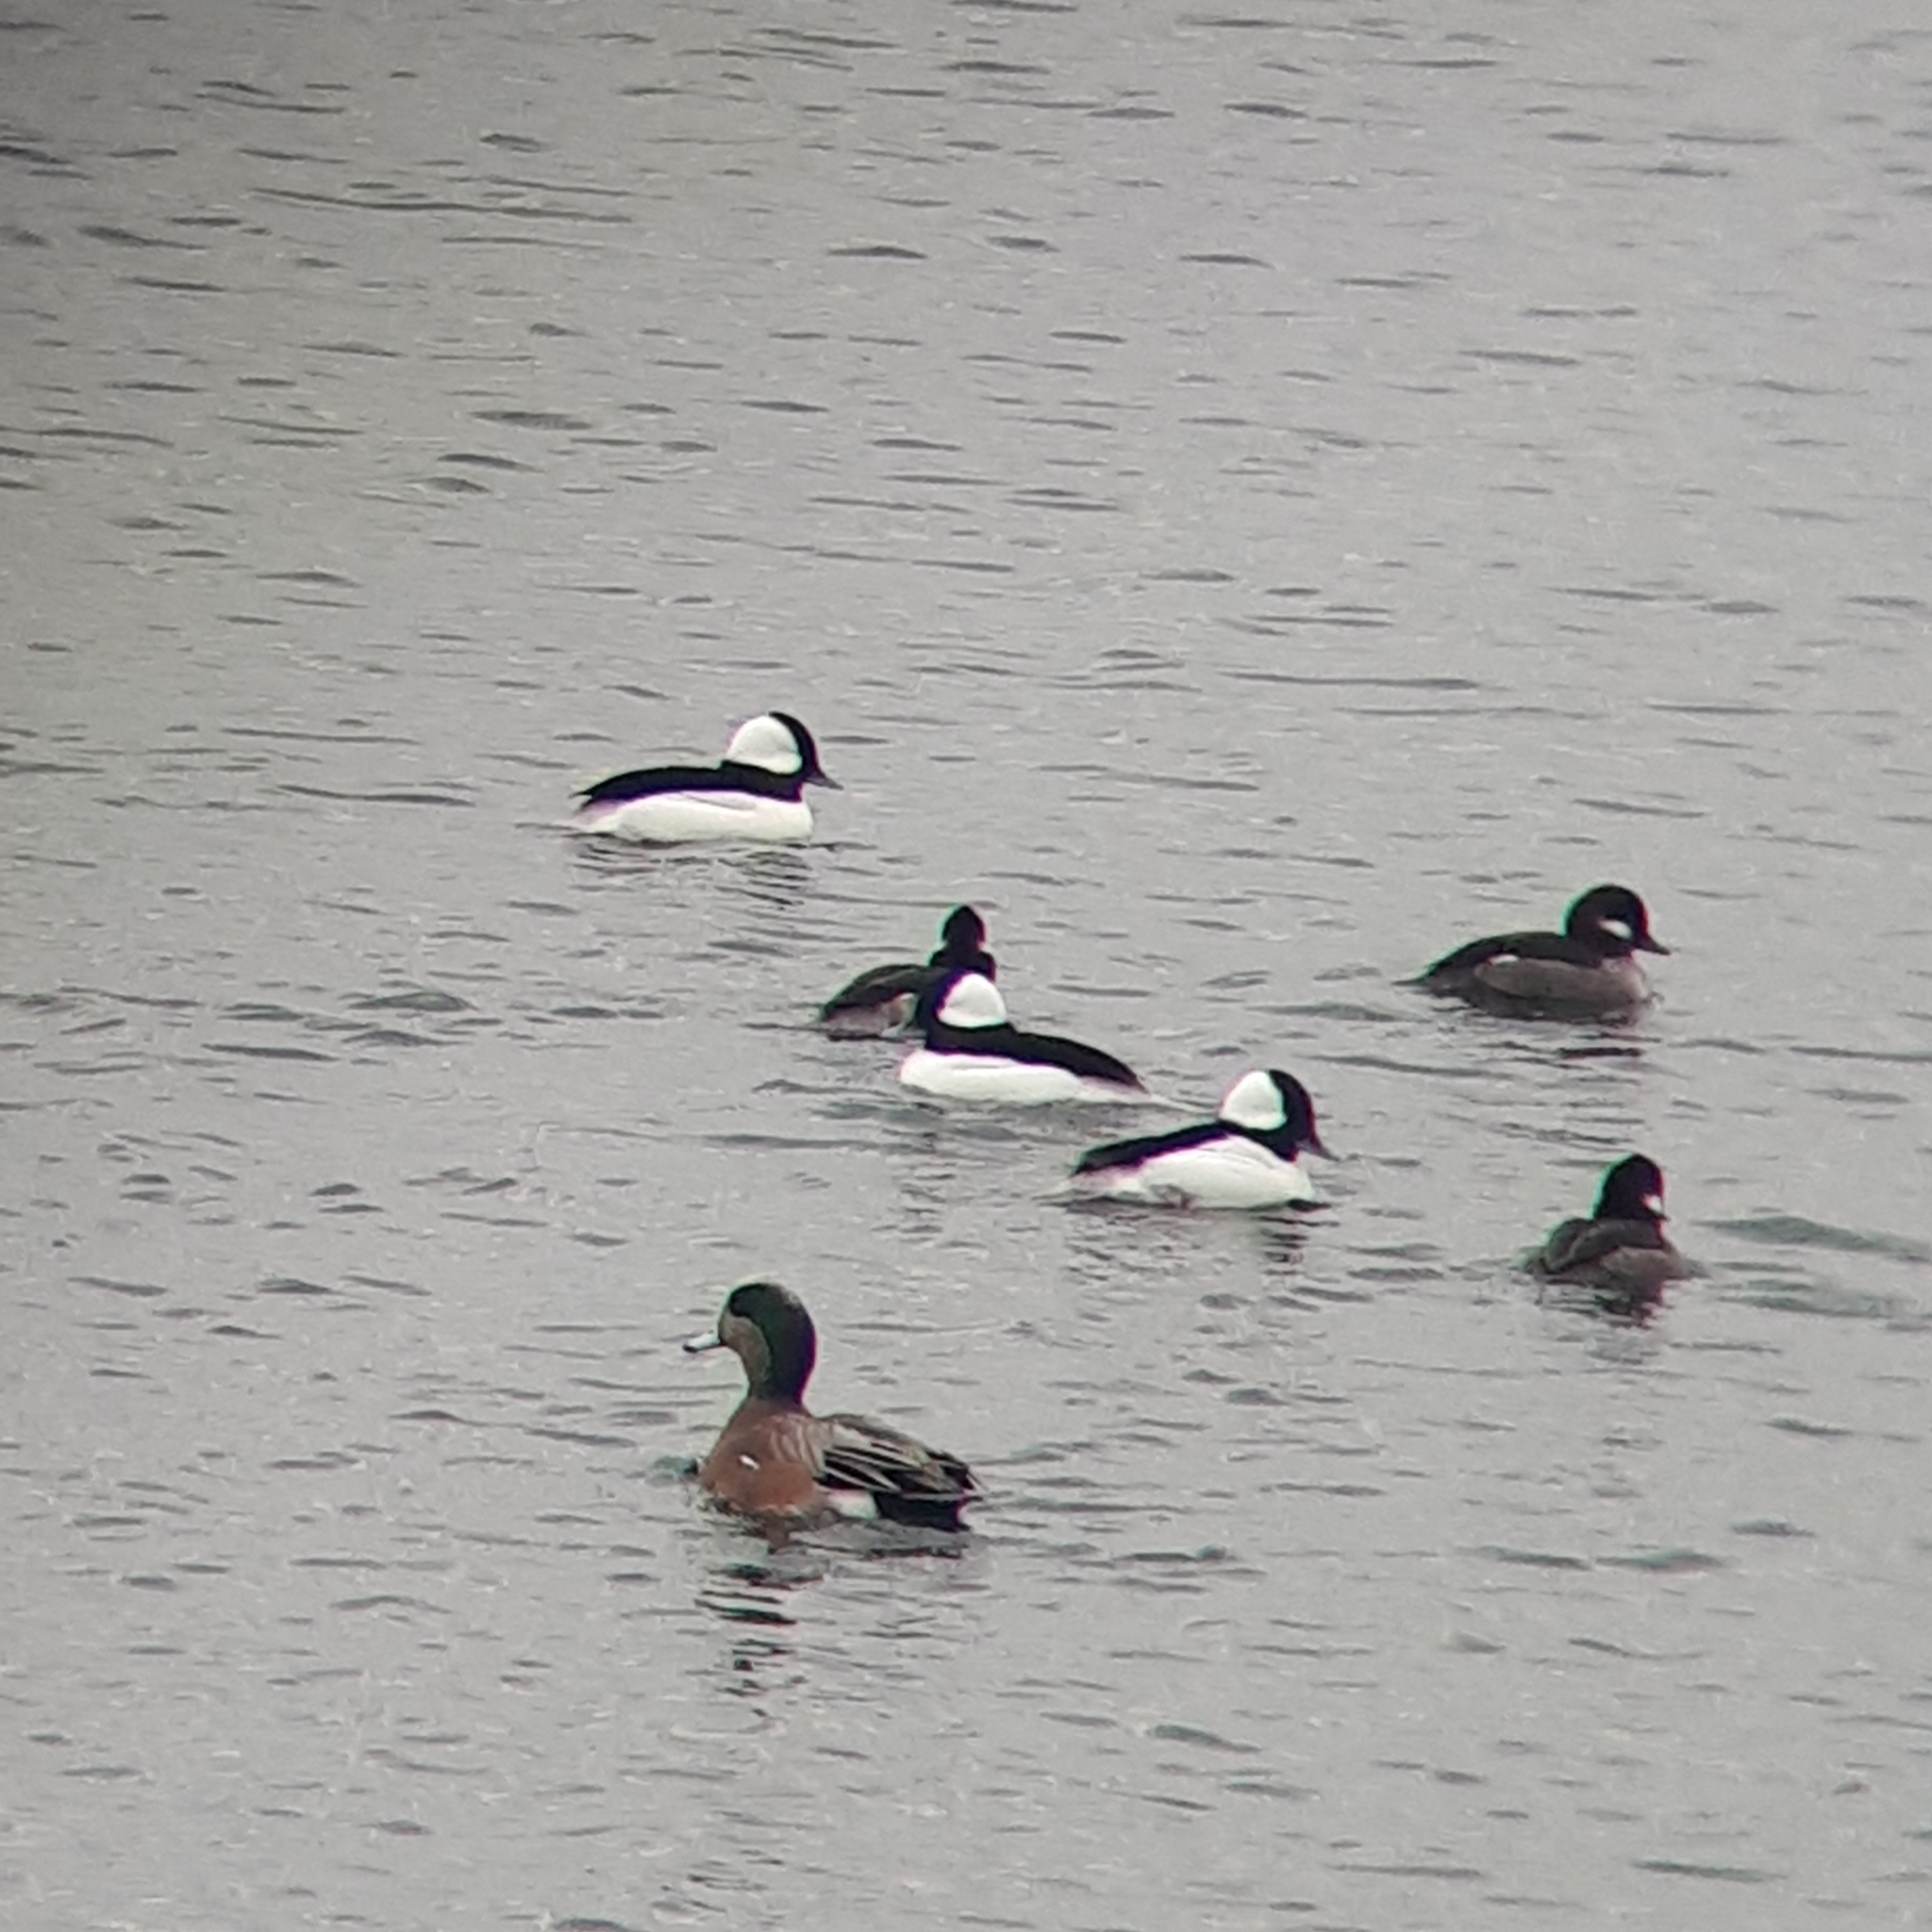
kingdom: Animalia
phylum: Chordata
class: Aves
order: Anseriformes
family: Anatidae
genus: Bucephala
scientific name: Bucephala albeola
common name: Bufflehead
